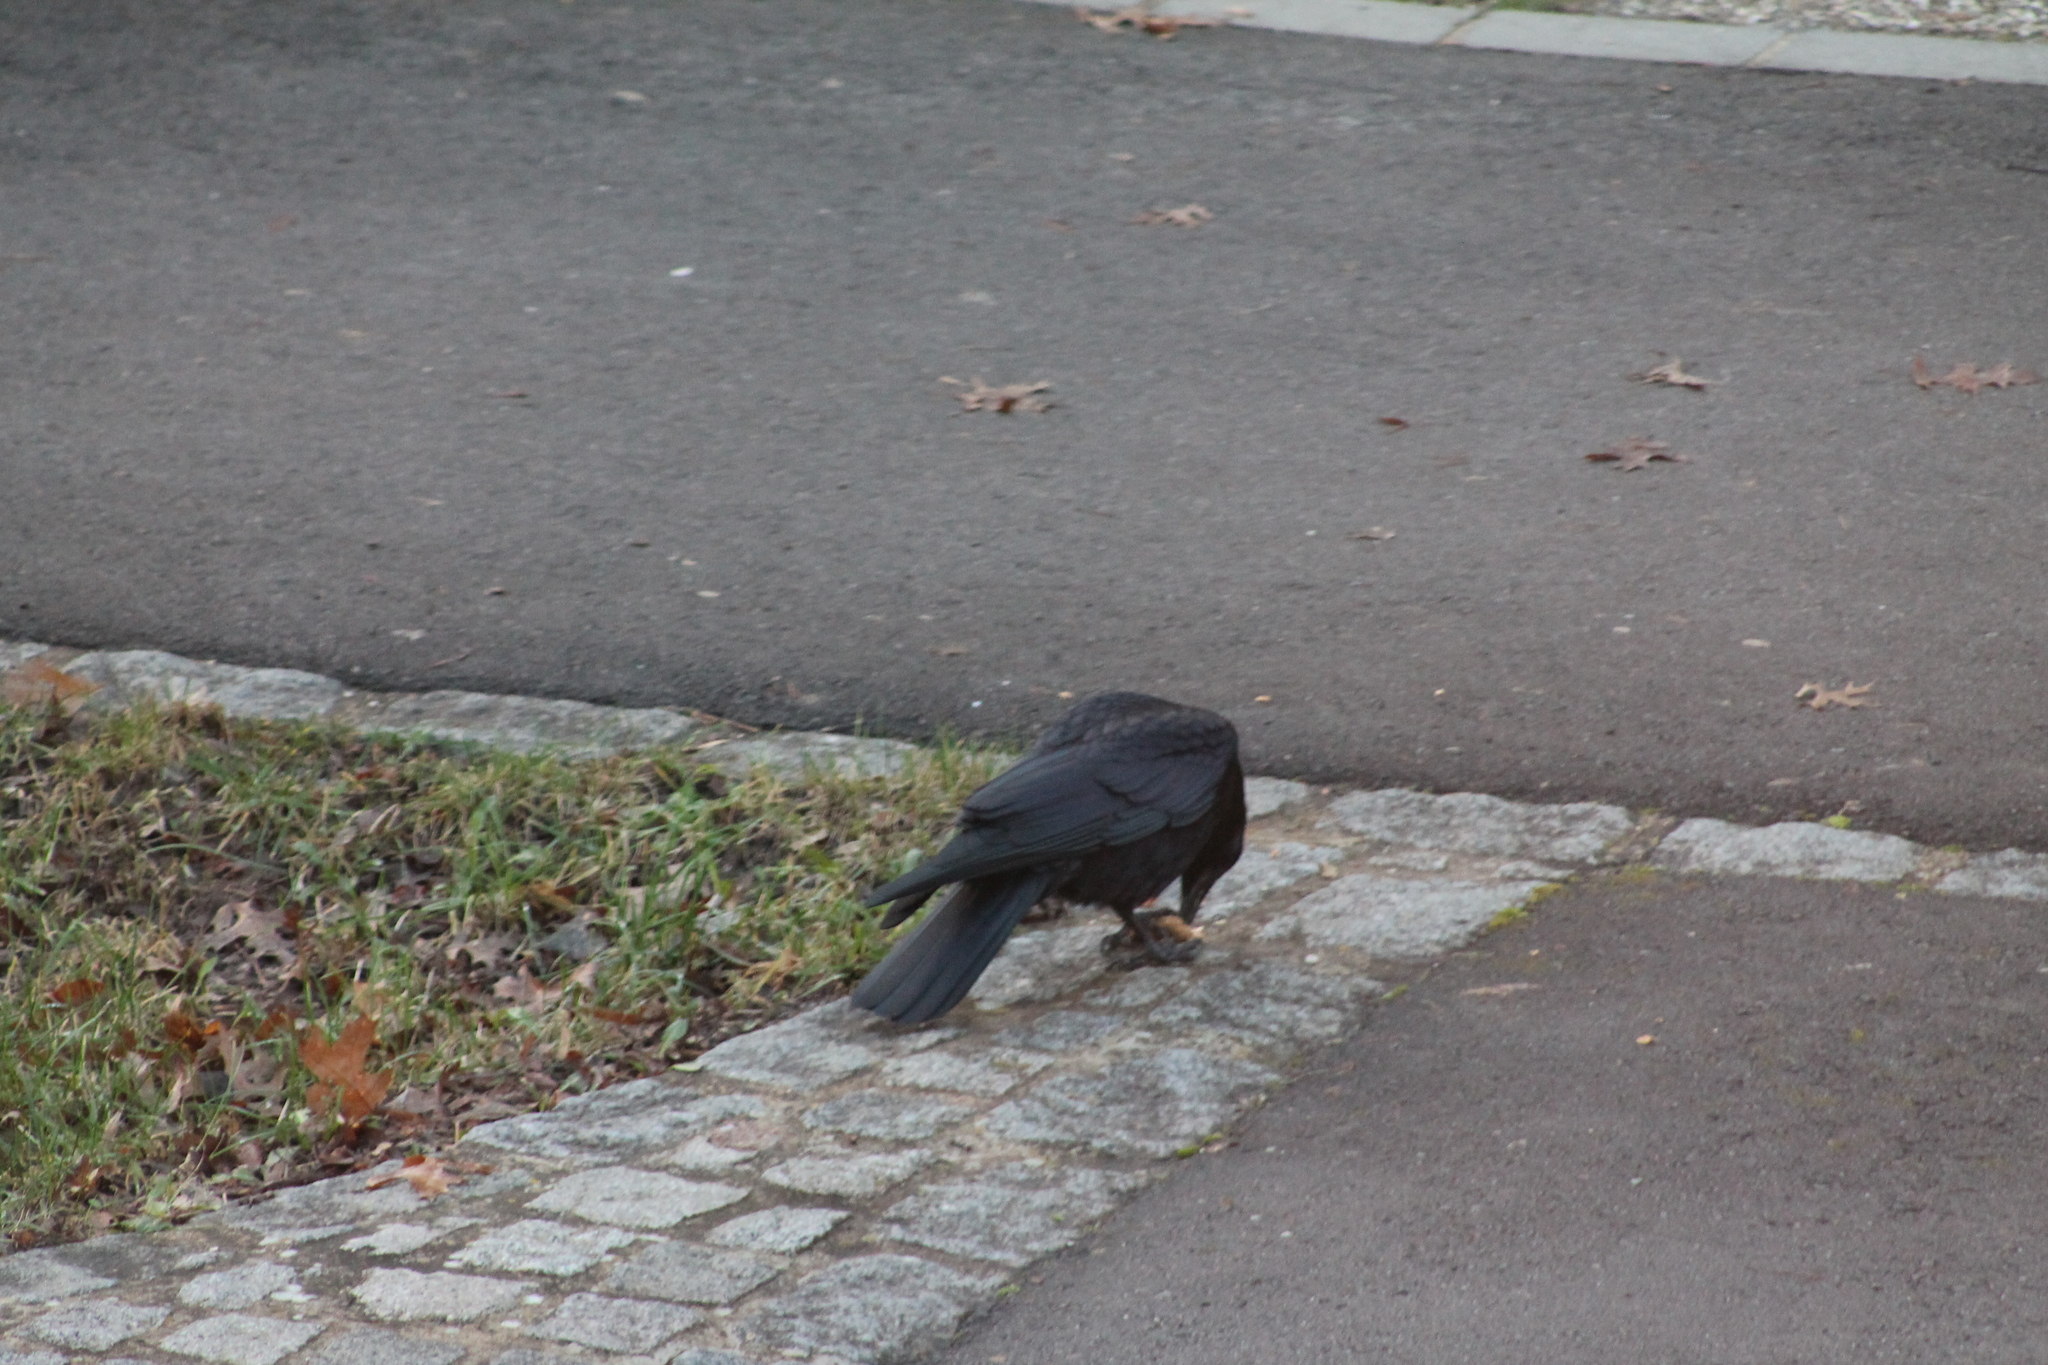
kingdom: Animalia
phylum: Chordata
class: Aves
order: Passeriformes
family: Corvidae
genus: Corvus
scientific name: Corvus corone
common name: Carrion crow
